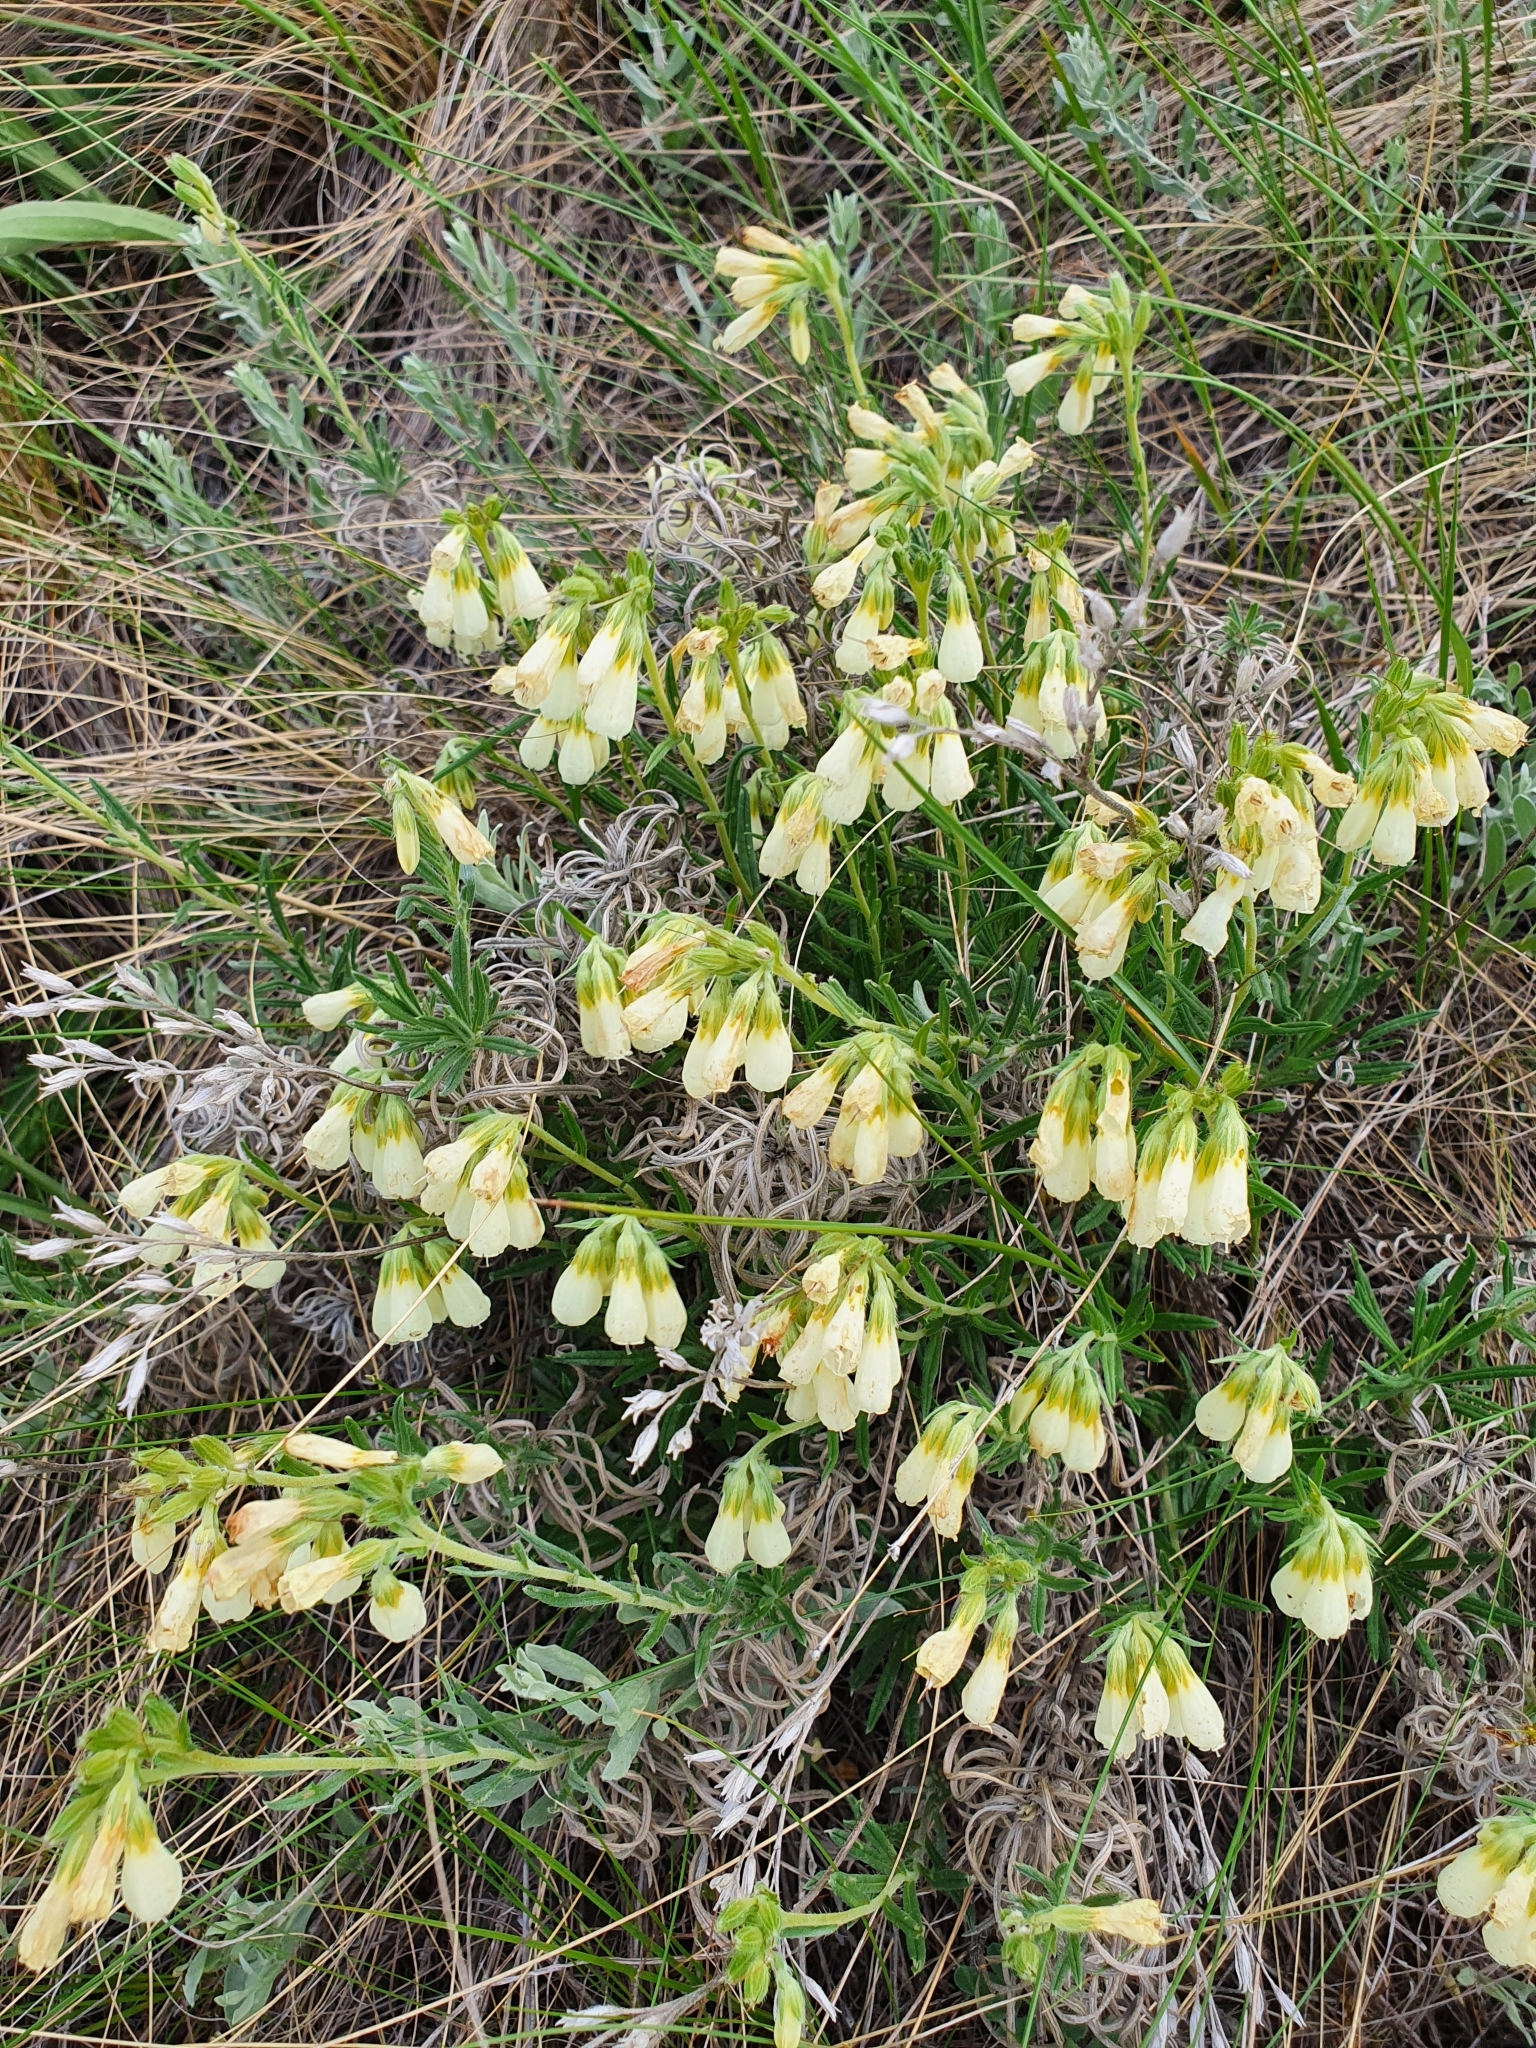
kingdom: Plantae
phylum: Tracheophyta
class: Magnoliopsida
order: Boraginales
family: Boraginaceae
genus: Onosma
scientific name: Onosma simplicissima
